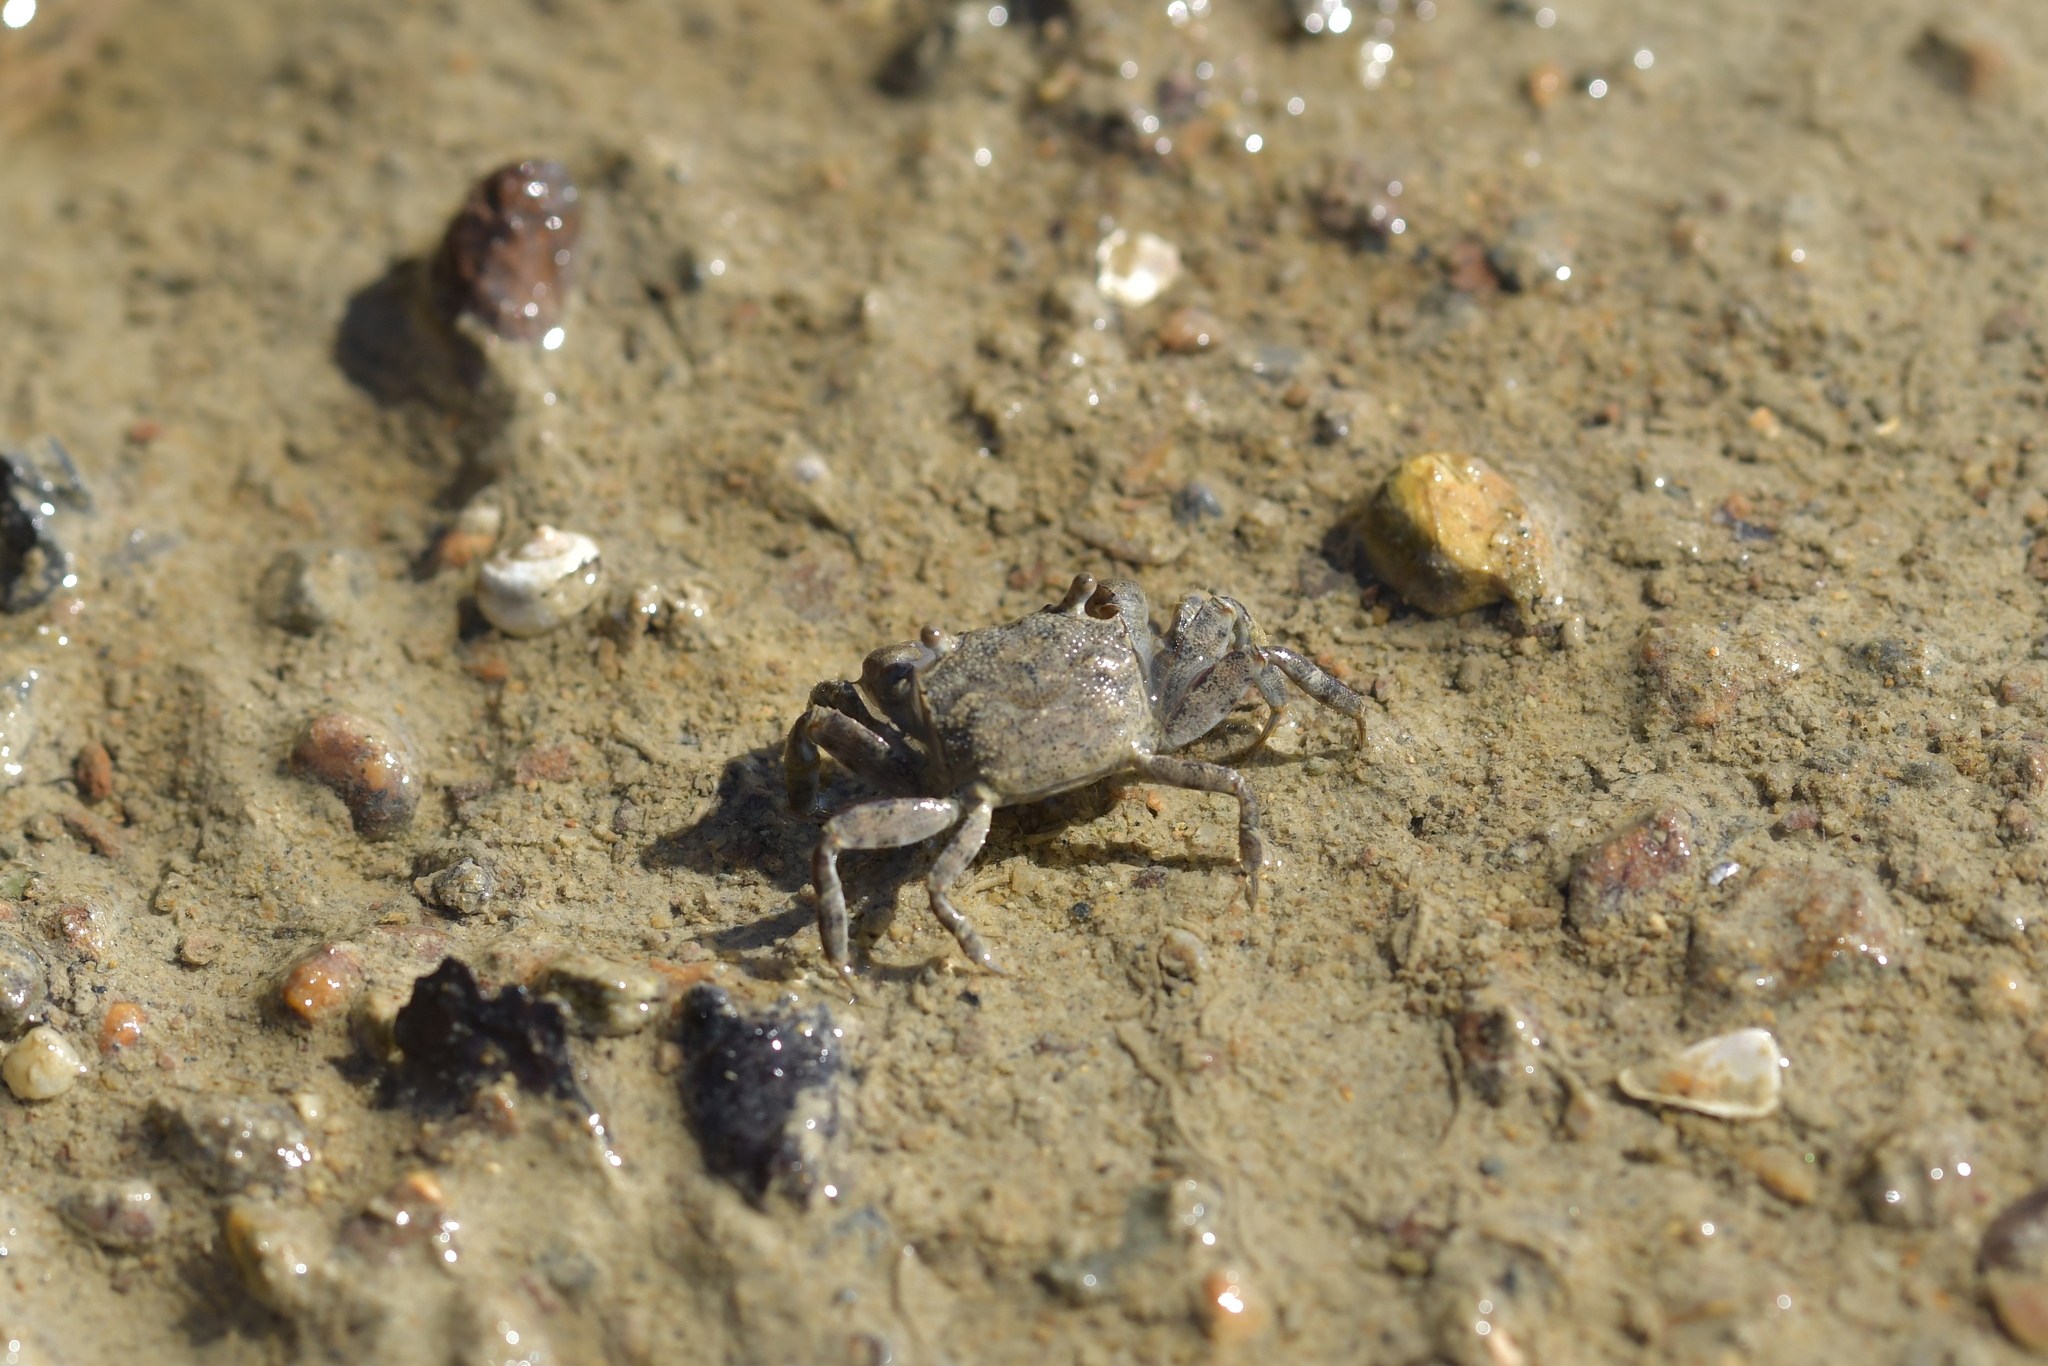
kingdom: Animalia
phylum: Arthropoda
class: Malacostraca
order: Decapoda
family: Varunidae
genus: Austrohelice
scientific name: Austrohelice crassa
